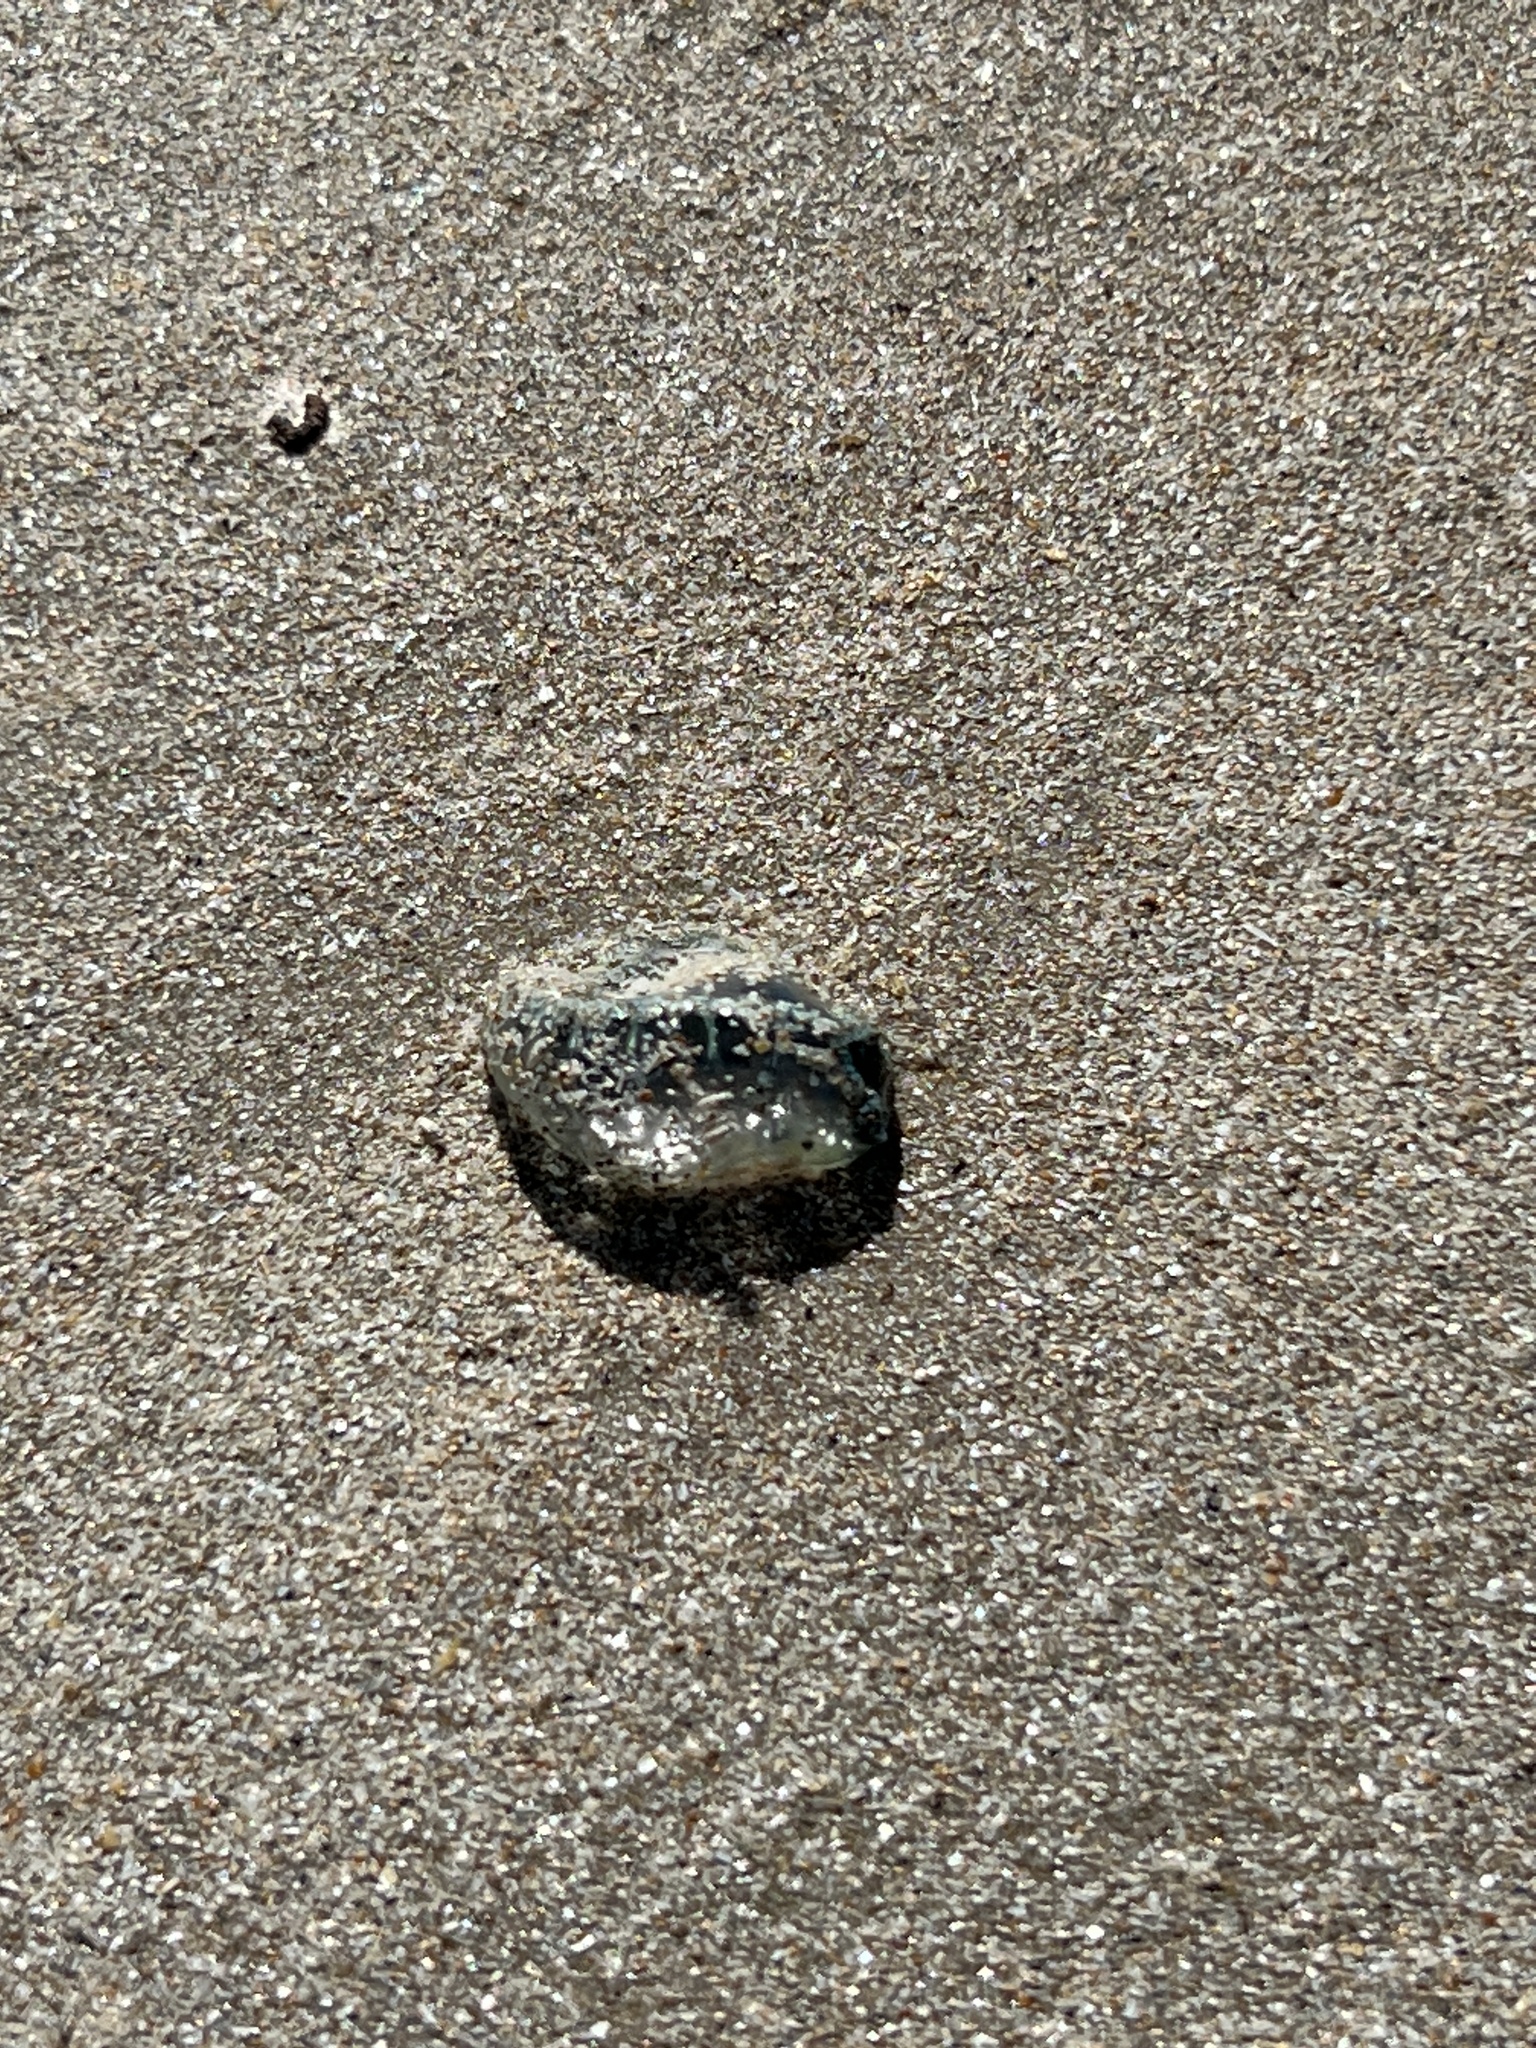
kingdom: Animalia
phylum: Cnidaria
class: Hydrozoa
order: Siphonophorae
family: Physaliidae
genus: Physalia
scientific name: Physalia physalis
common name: Portuguese man-of-war
